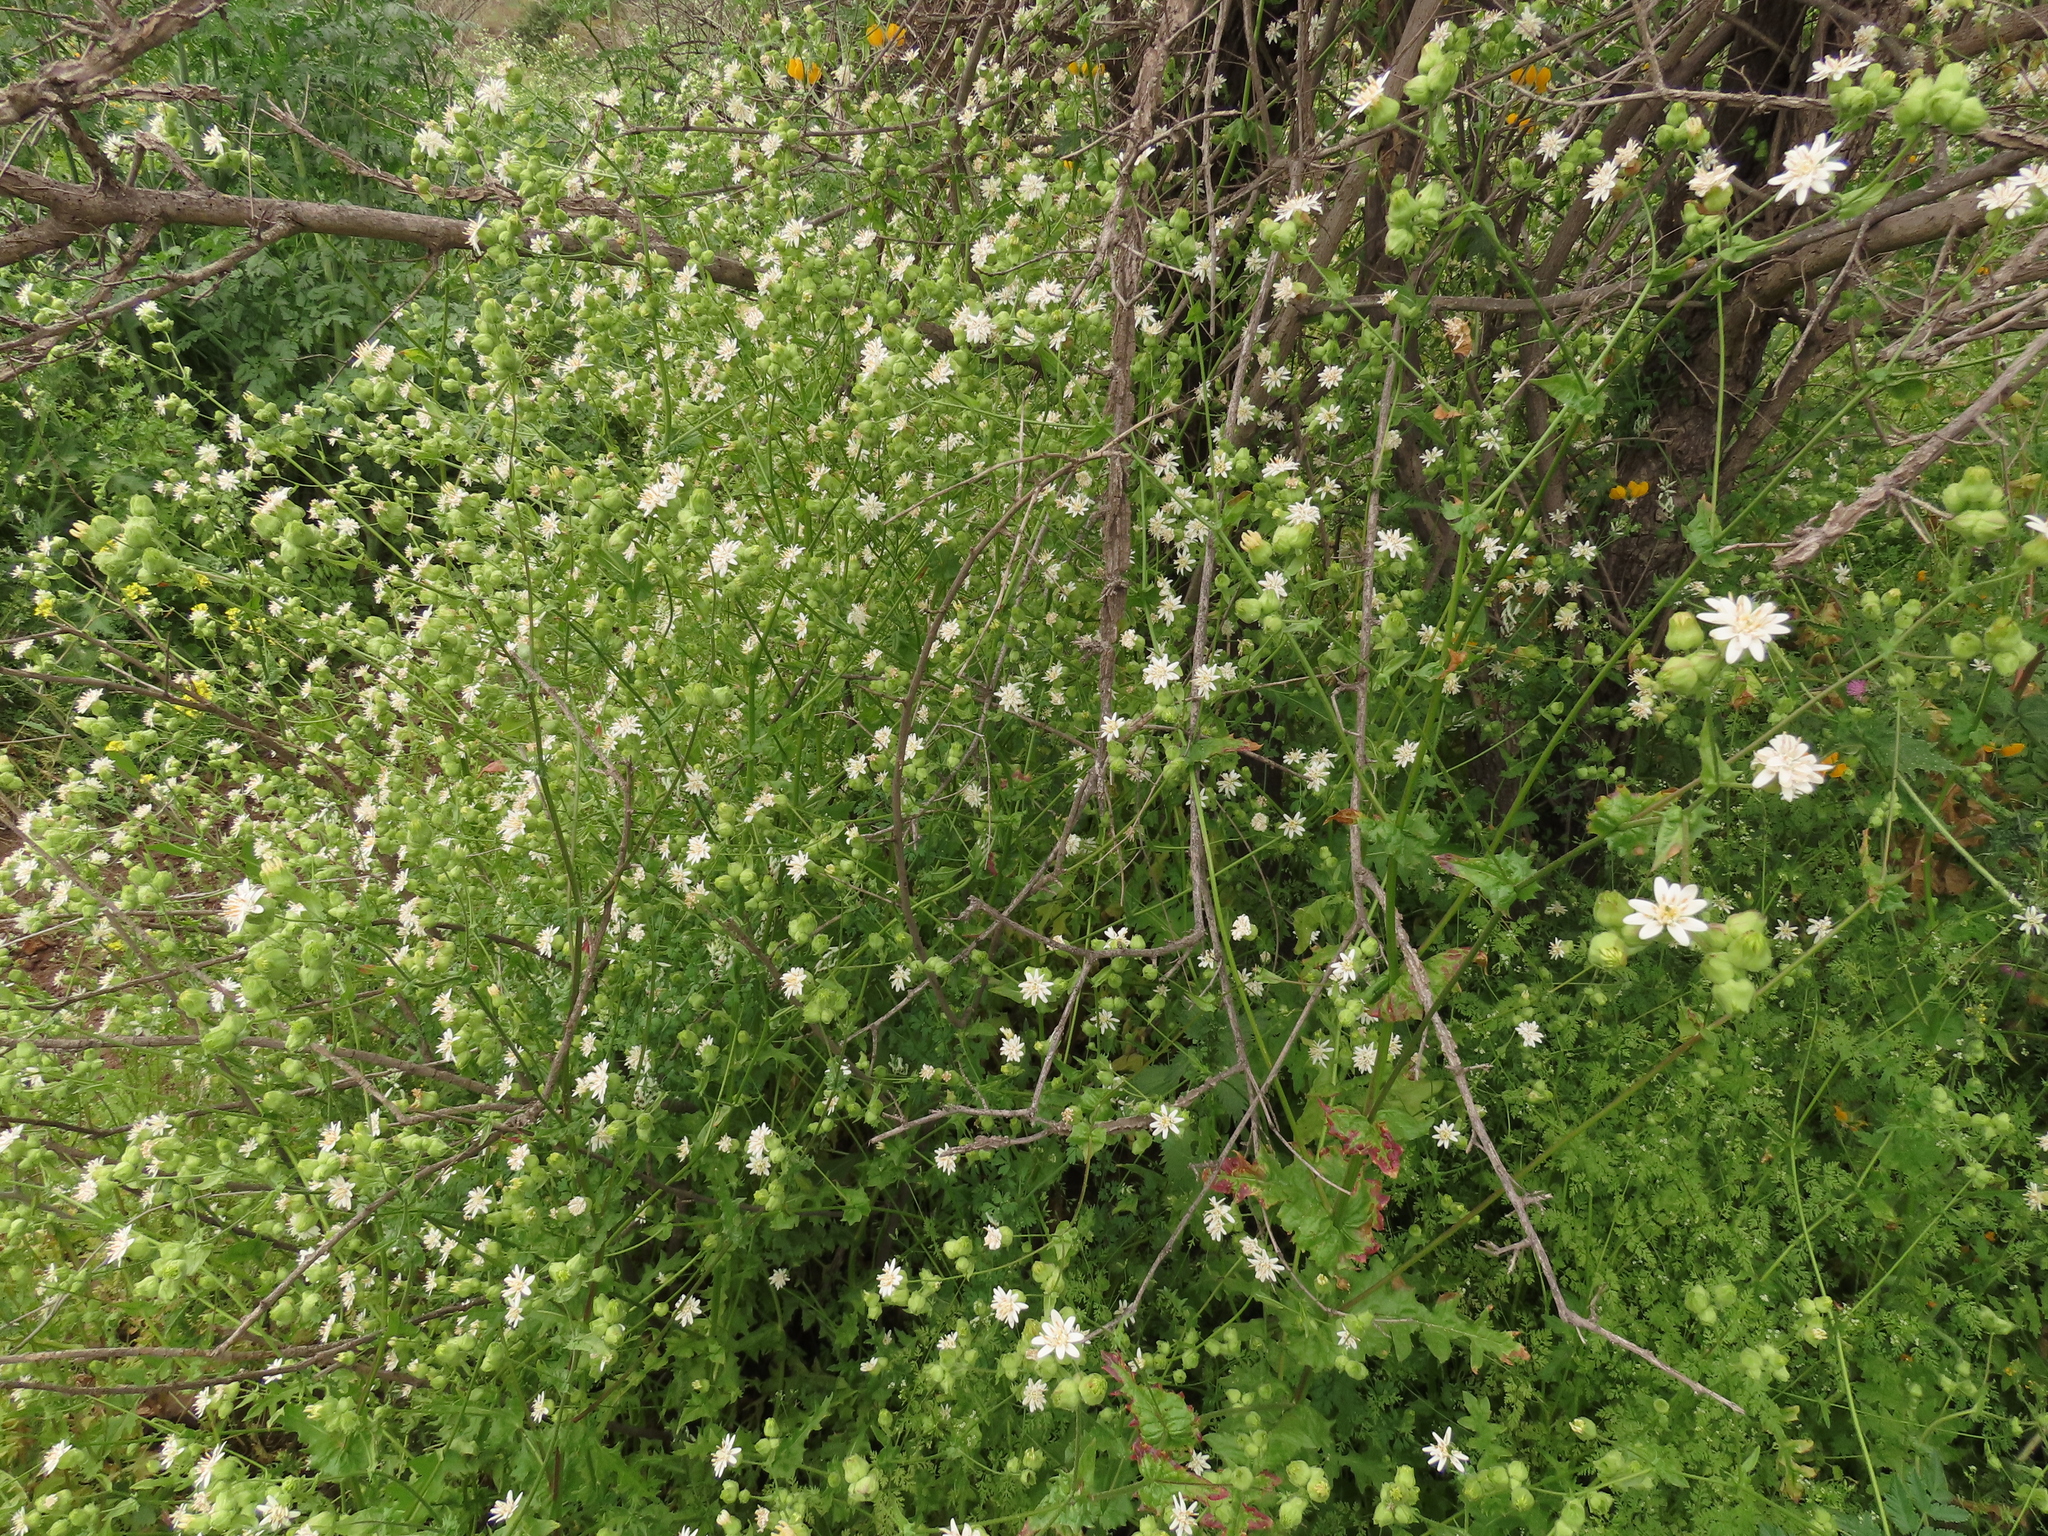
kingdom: Plantae
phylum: Tracheophyta
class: Magnoliopsida
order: Asterales
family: Asteraceae
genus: Moscharia
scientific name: Moscharia pinnatifida
